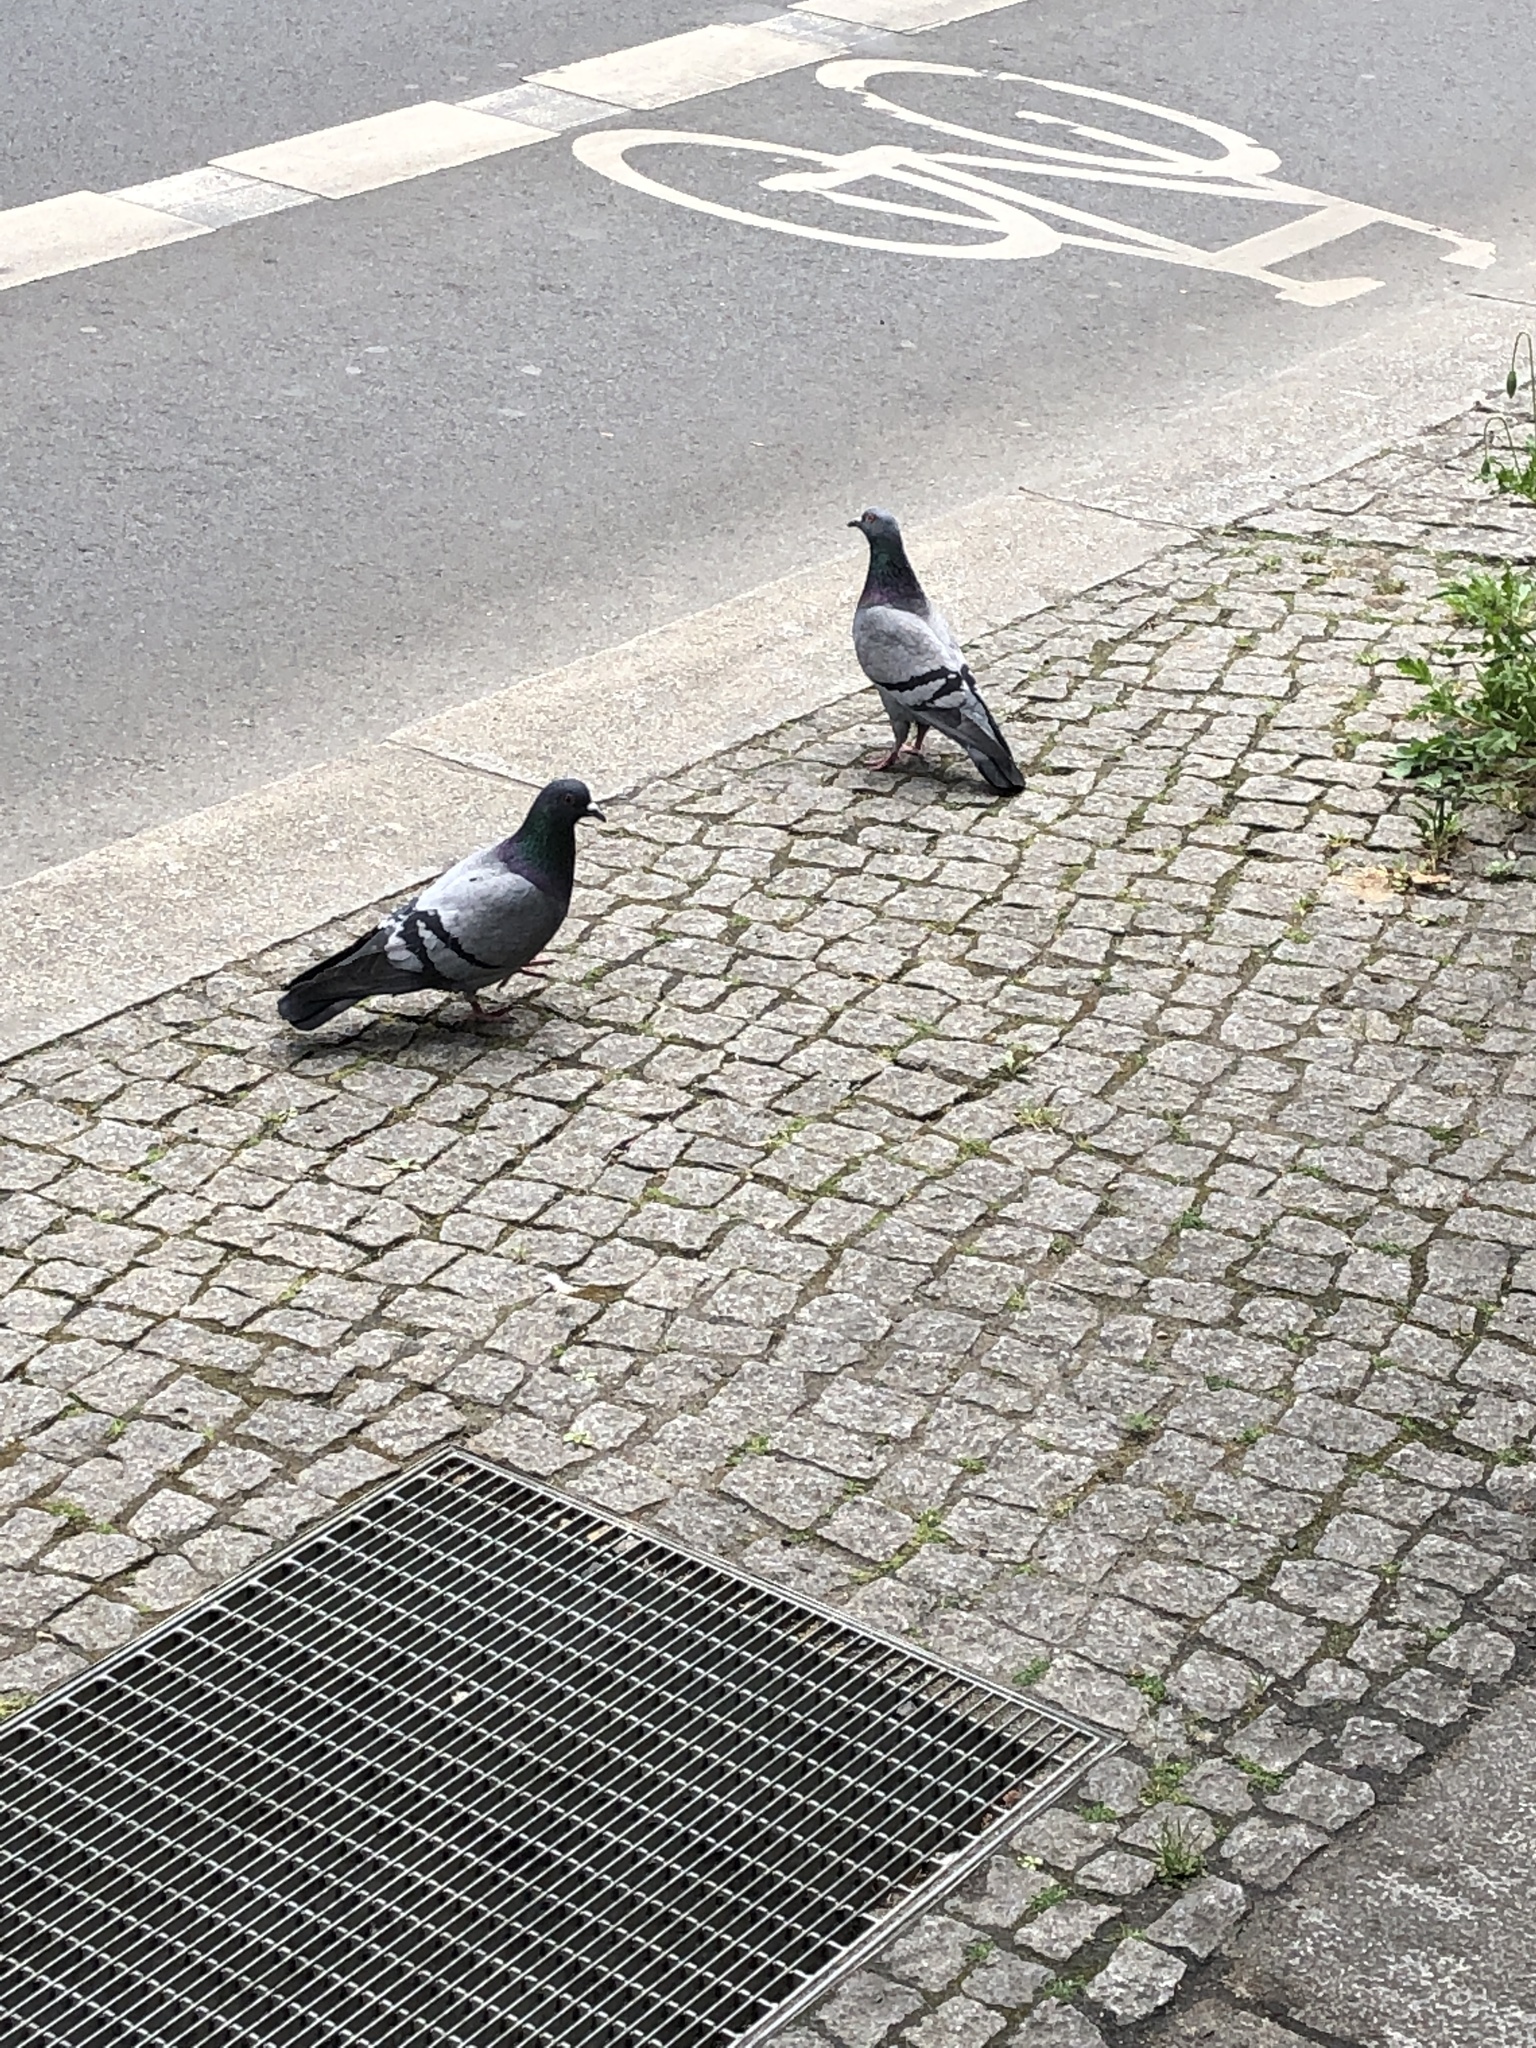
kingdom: Animalia
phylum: Chordata
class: Aves
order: Columbiformes
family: Columbidae
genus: Columba
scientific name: Columba livia
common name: Rock pigeon
